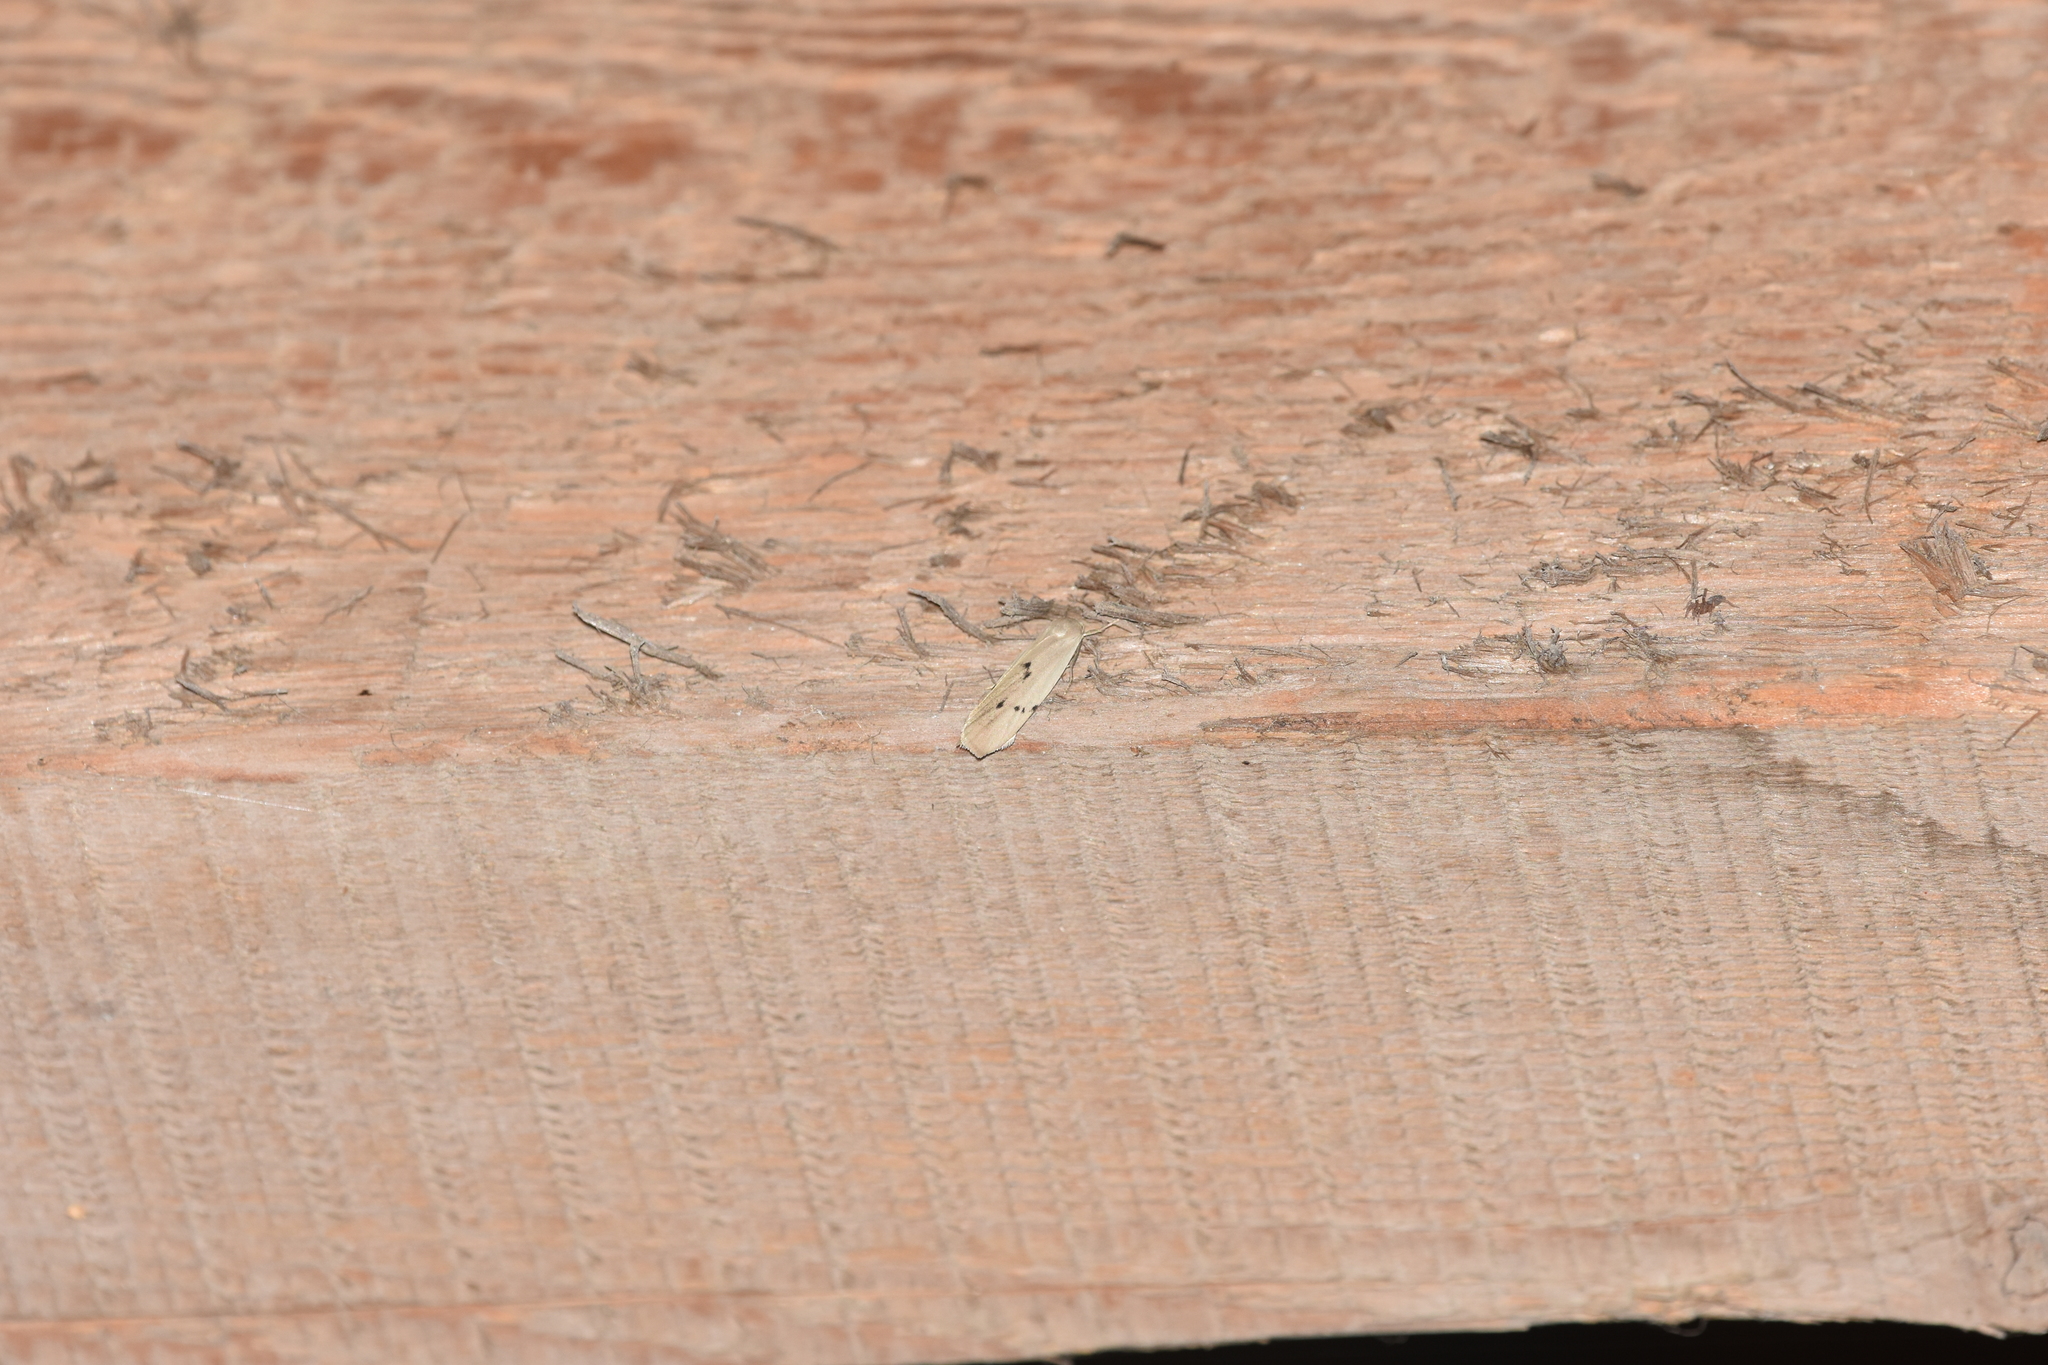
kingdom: Animalia
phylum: Arthropoda
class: Insecta
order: Lepidoptera
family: Erebidae
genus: Pelosia
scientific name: Pelosia muscerda
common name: Dotted footman
